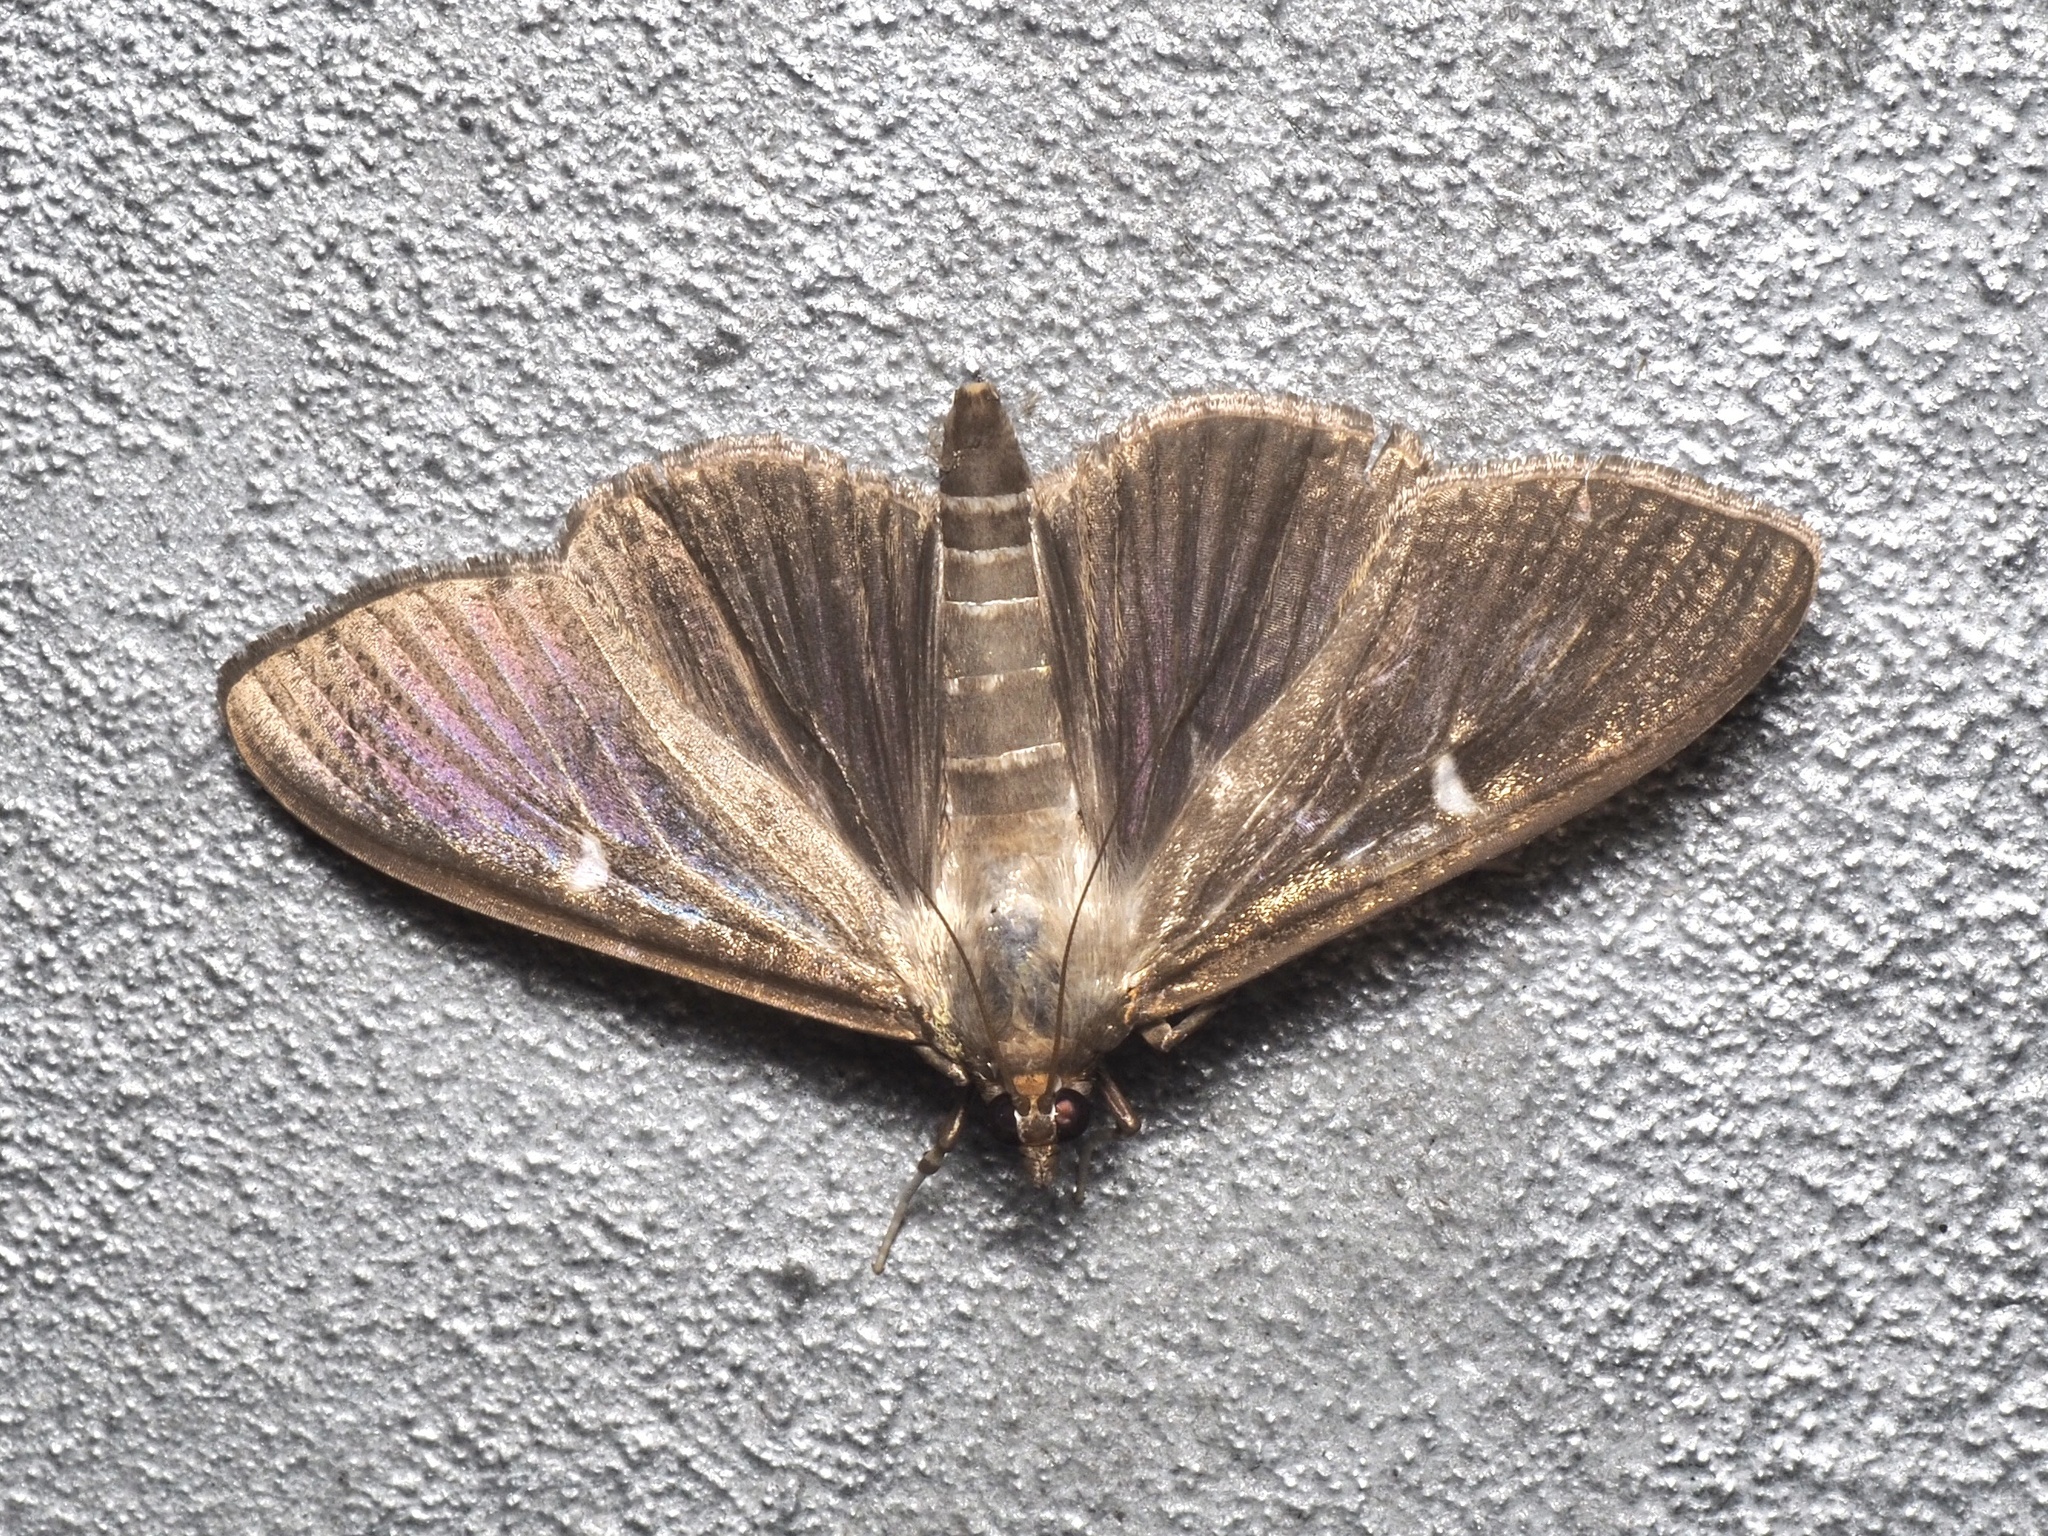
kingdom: Animalia
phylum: Arthropoda
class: Insecta
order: Lepidoptera
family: Crambidae
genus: Cydalima
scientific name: Cydalima perspectalis
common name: Box tree moth
